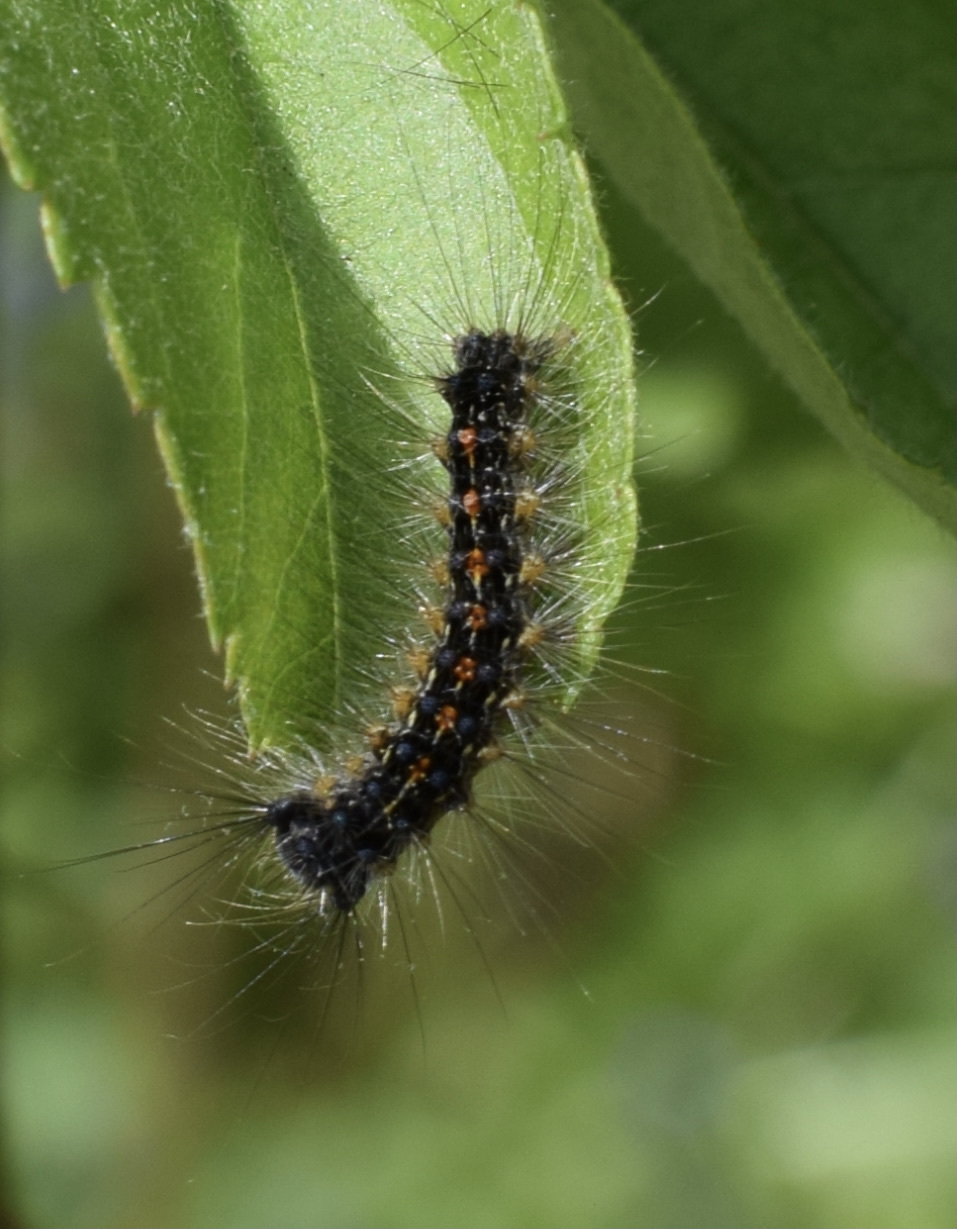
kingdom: Animalia
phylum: Arthropoda
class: Insecta
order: Lepidoptera
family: Erebidae
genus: Lymantria
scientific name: Lymantria dispar
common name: Gypsy moth
